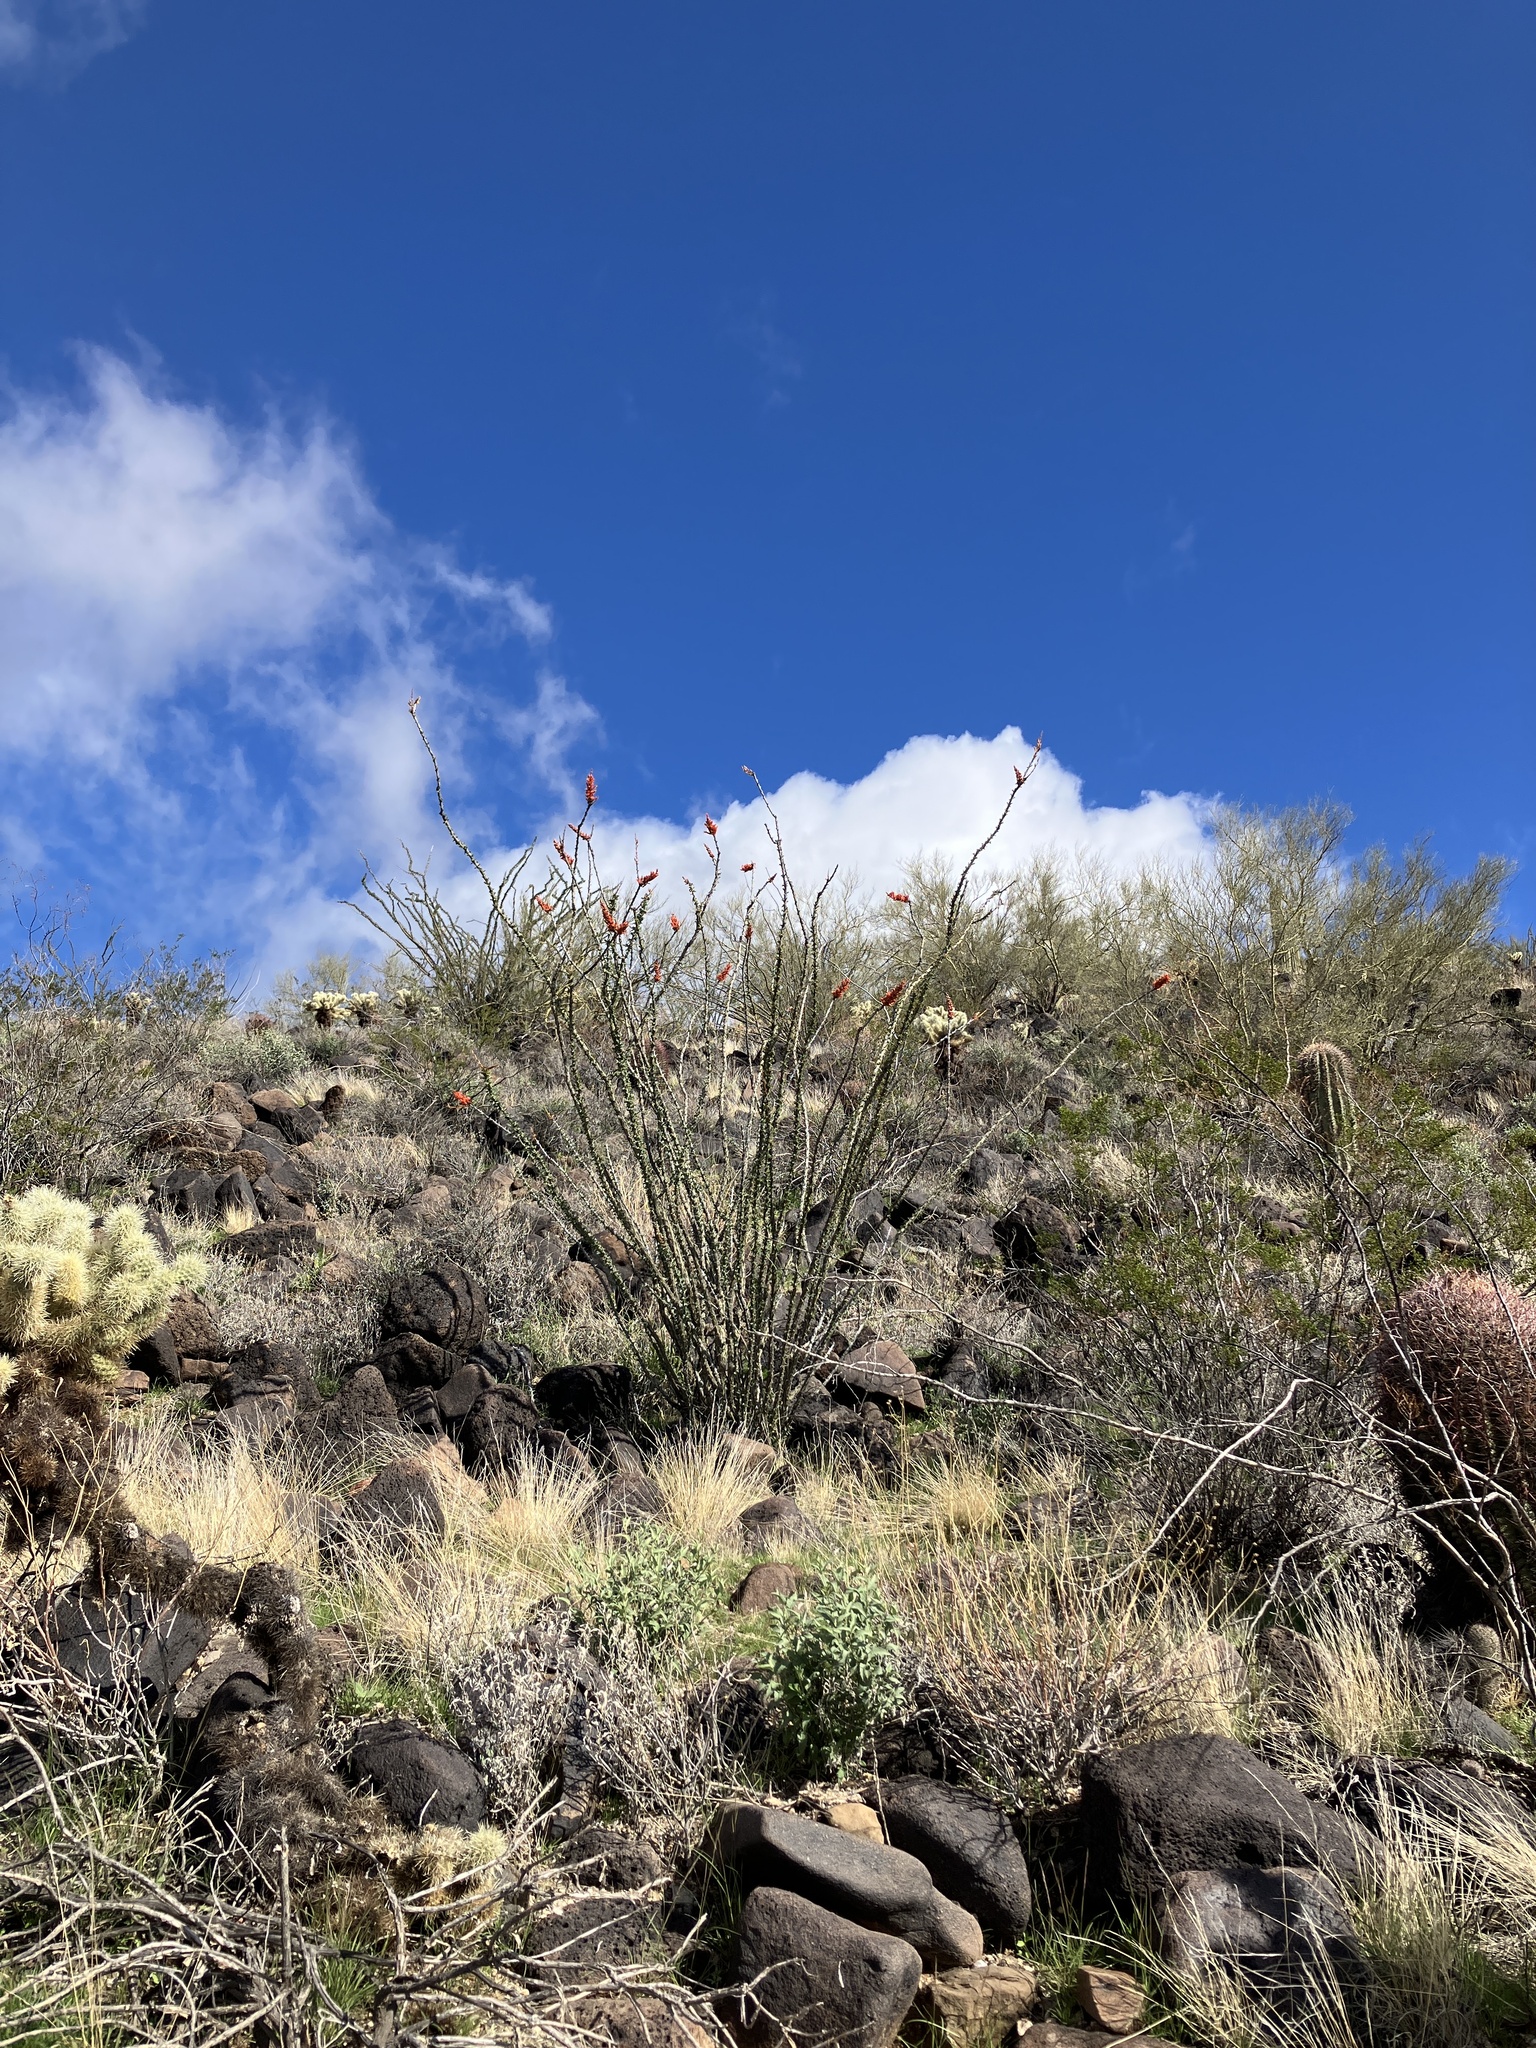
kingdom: Plantae
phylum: Tracheophyta
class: Magnoliopsida
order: Ericales
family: Fouquieriaceae
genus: Fouquieria
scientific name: Fouquieria splendens
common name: Vine-cactus
